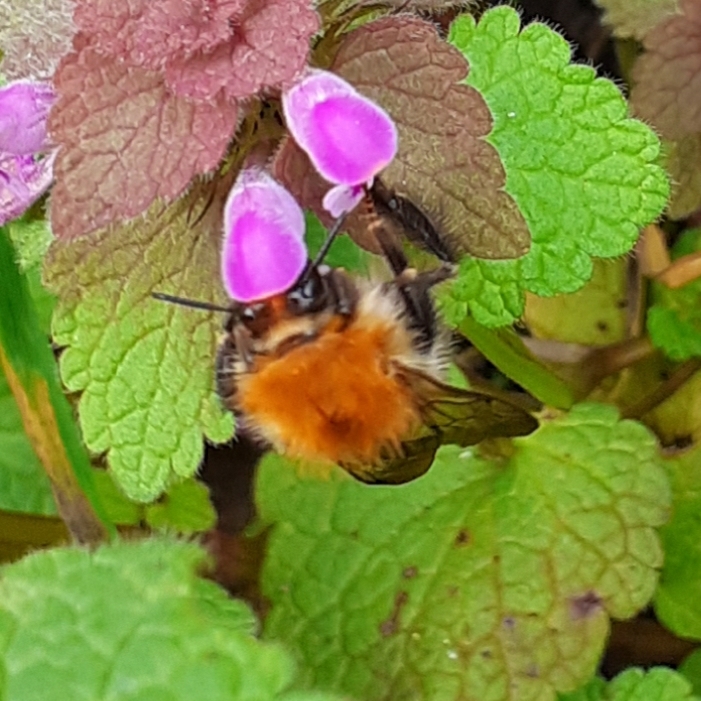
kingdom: Animalia
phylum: Arthropoda
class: Insecta
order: Hymenoptera
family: Apidae
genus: Bombus
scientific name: Bombus pascuorum
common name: Common carder bee
